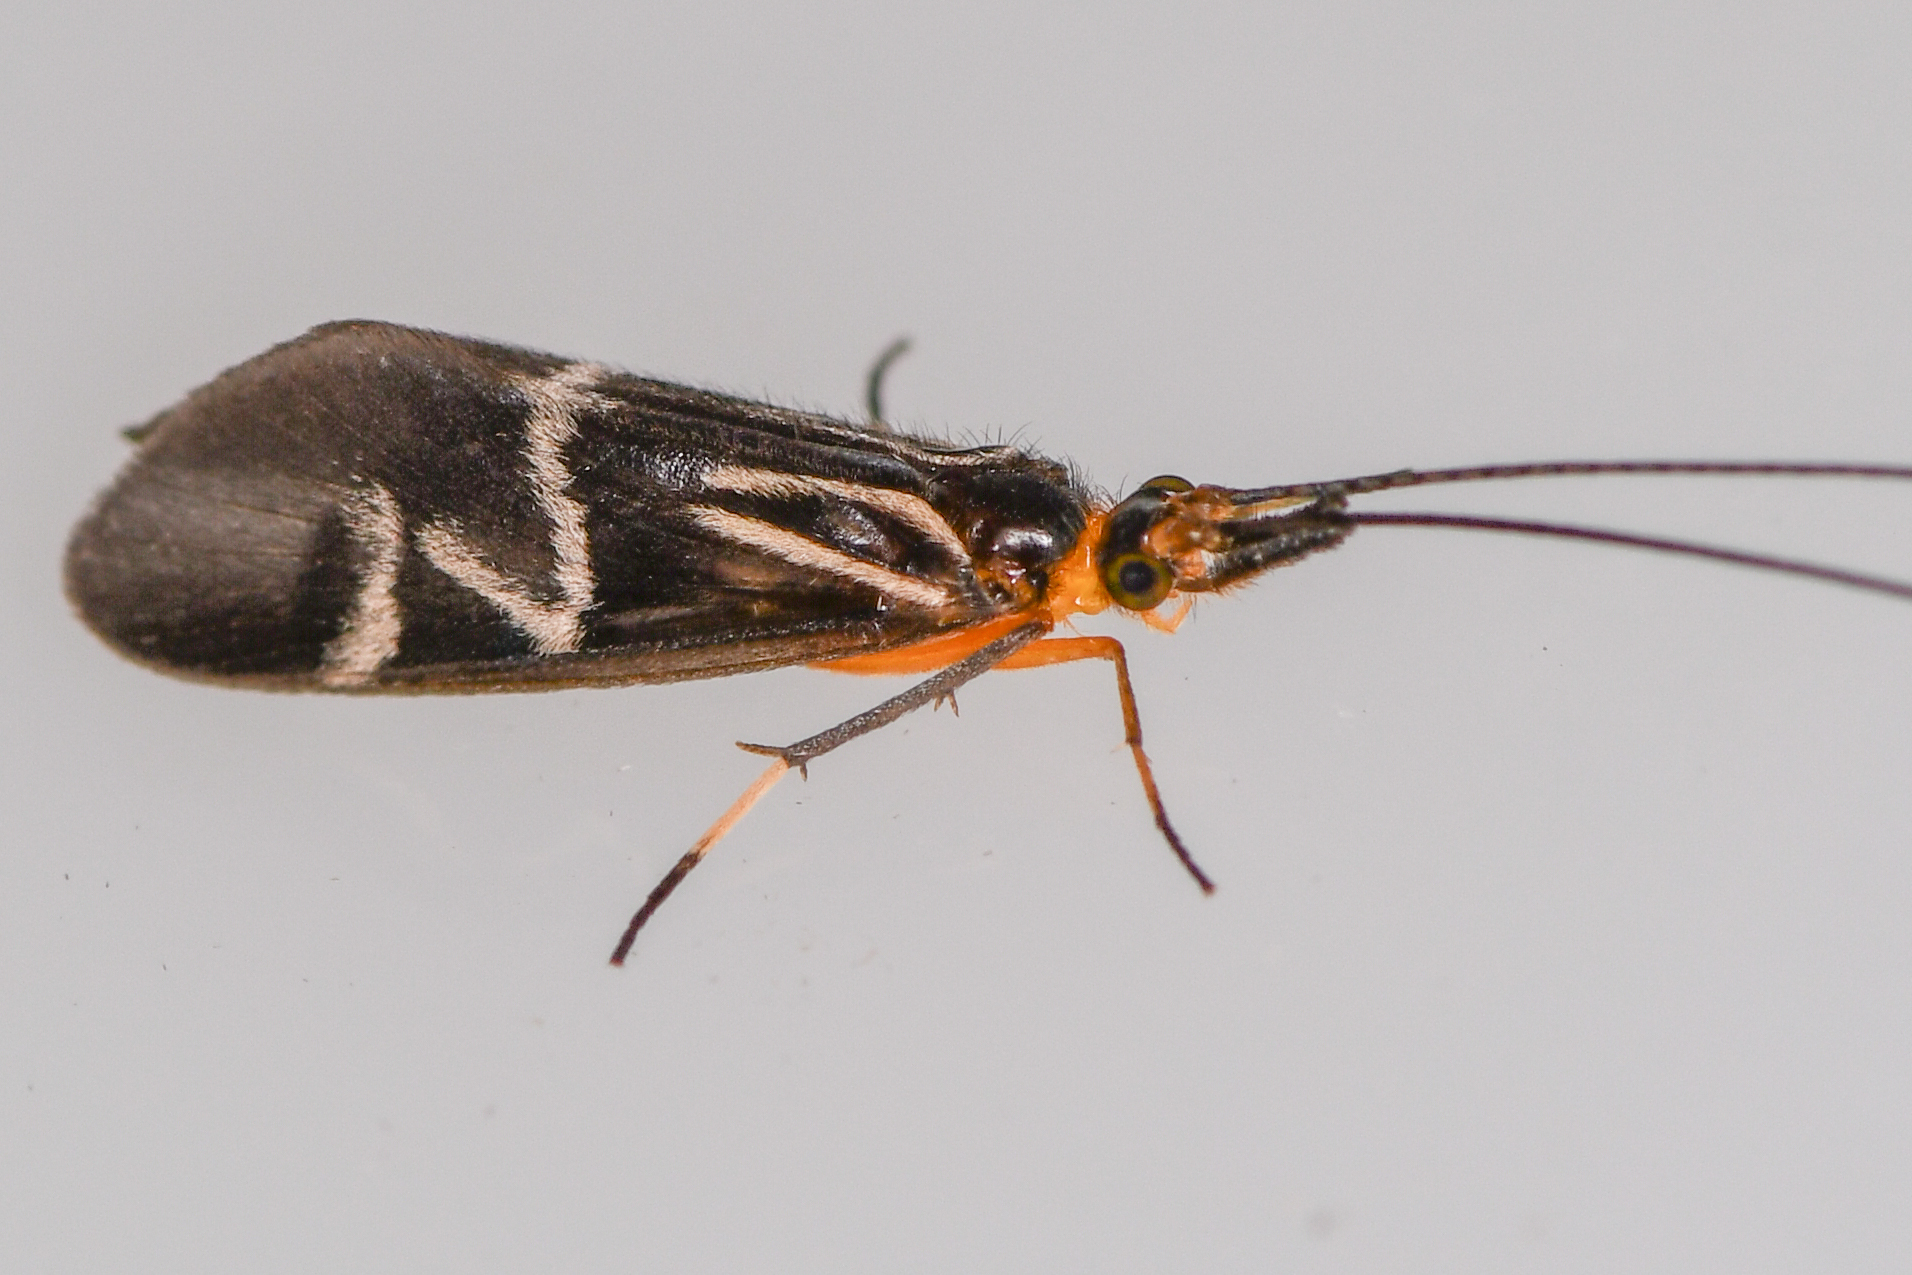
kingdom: Animalia
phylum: Arthropoda
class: Insecta
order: Trichoptera
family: Calamoceratidae
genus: Phylloicus
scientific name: Phylloicus elegans
